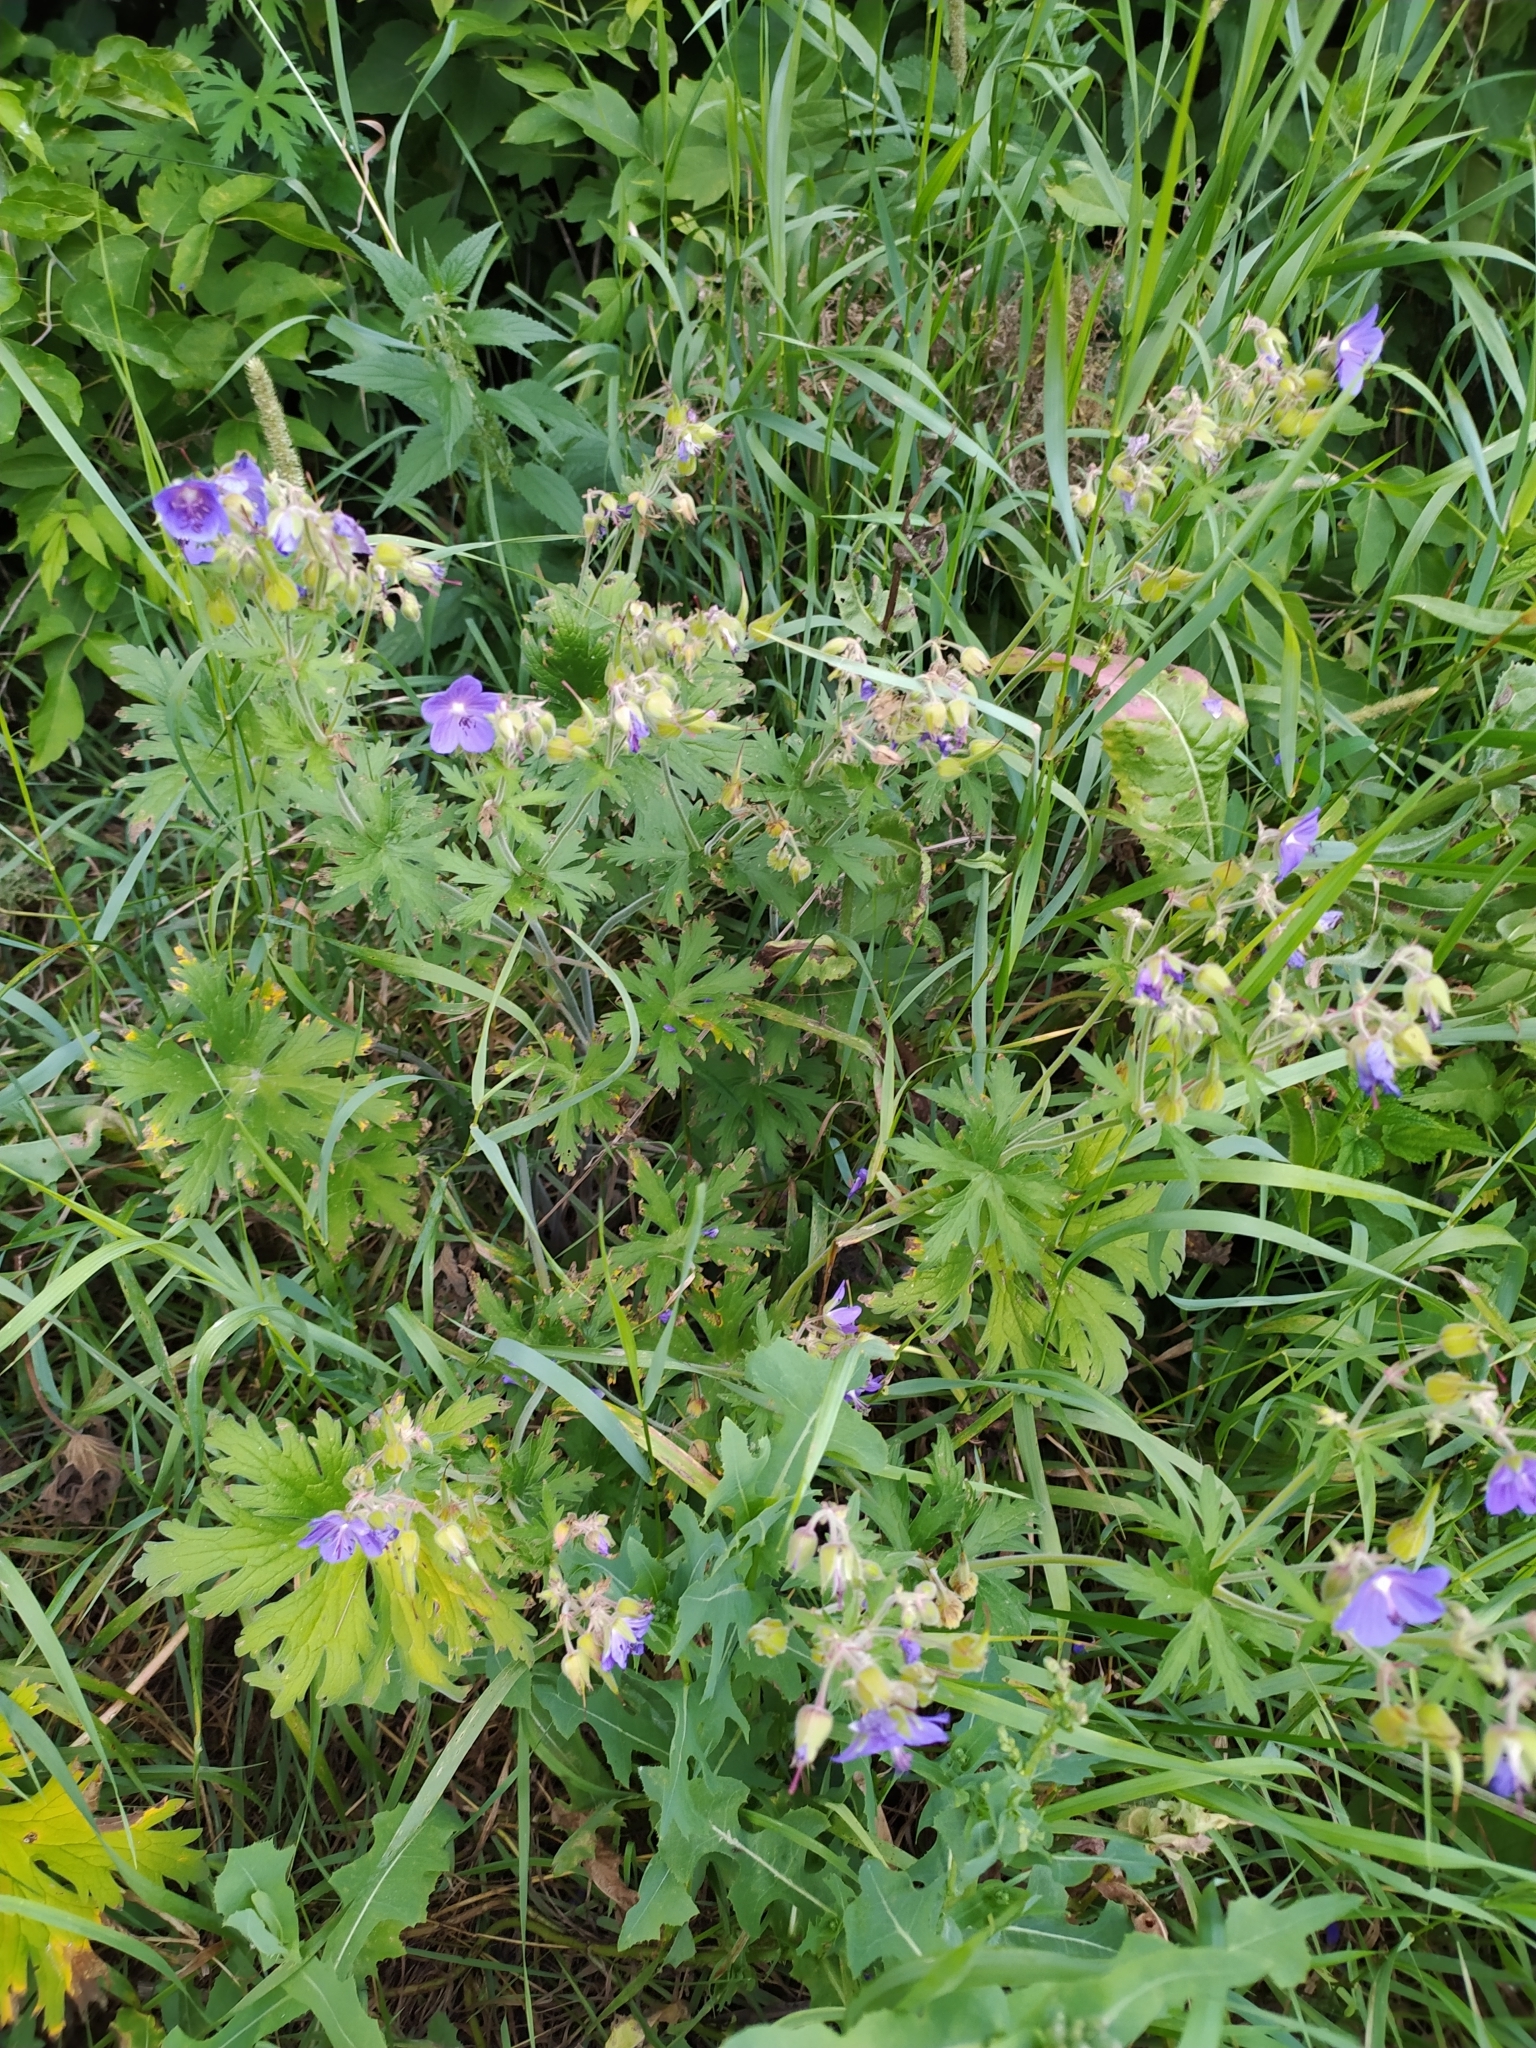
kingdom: Plantae
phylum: Tracheophyta
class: Magnoliopsida
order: Geraniales
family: Geraniaceae
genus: Geranium
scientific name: Geranium pratense
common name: Meadow crane's-bill
